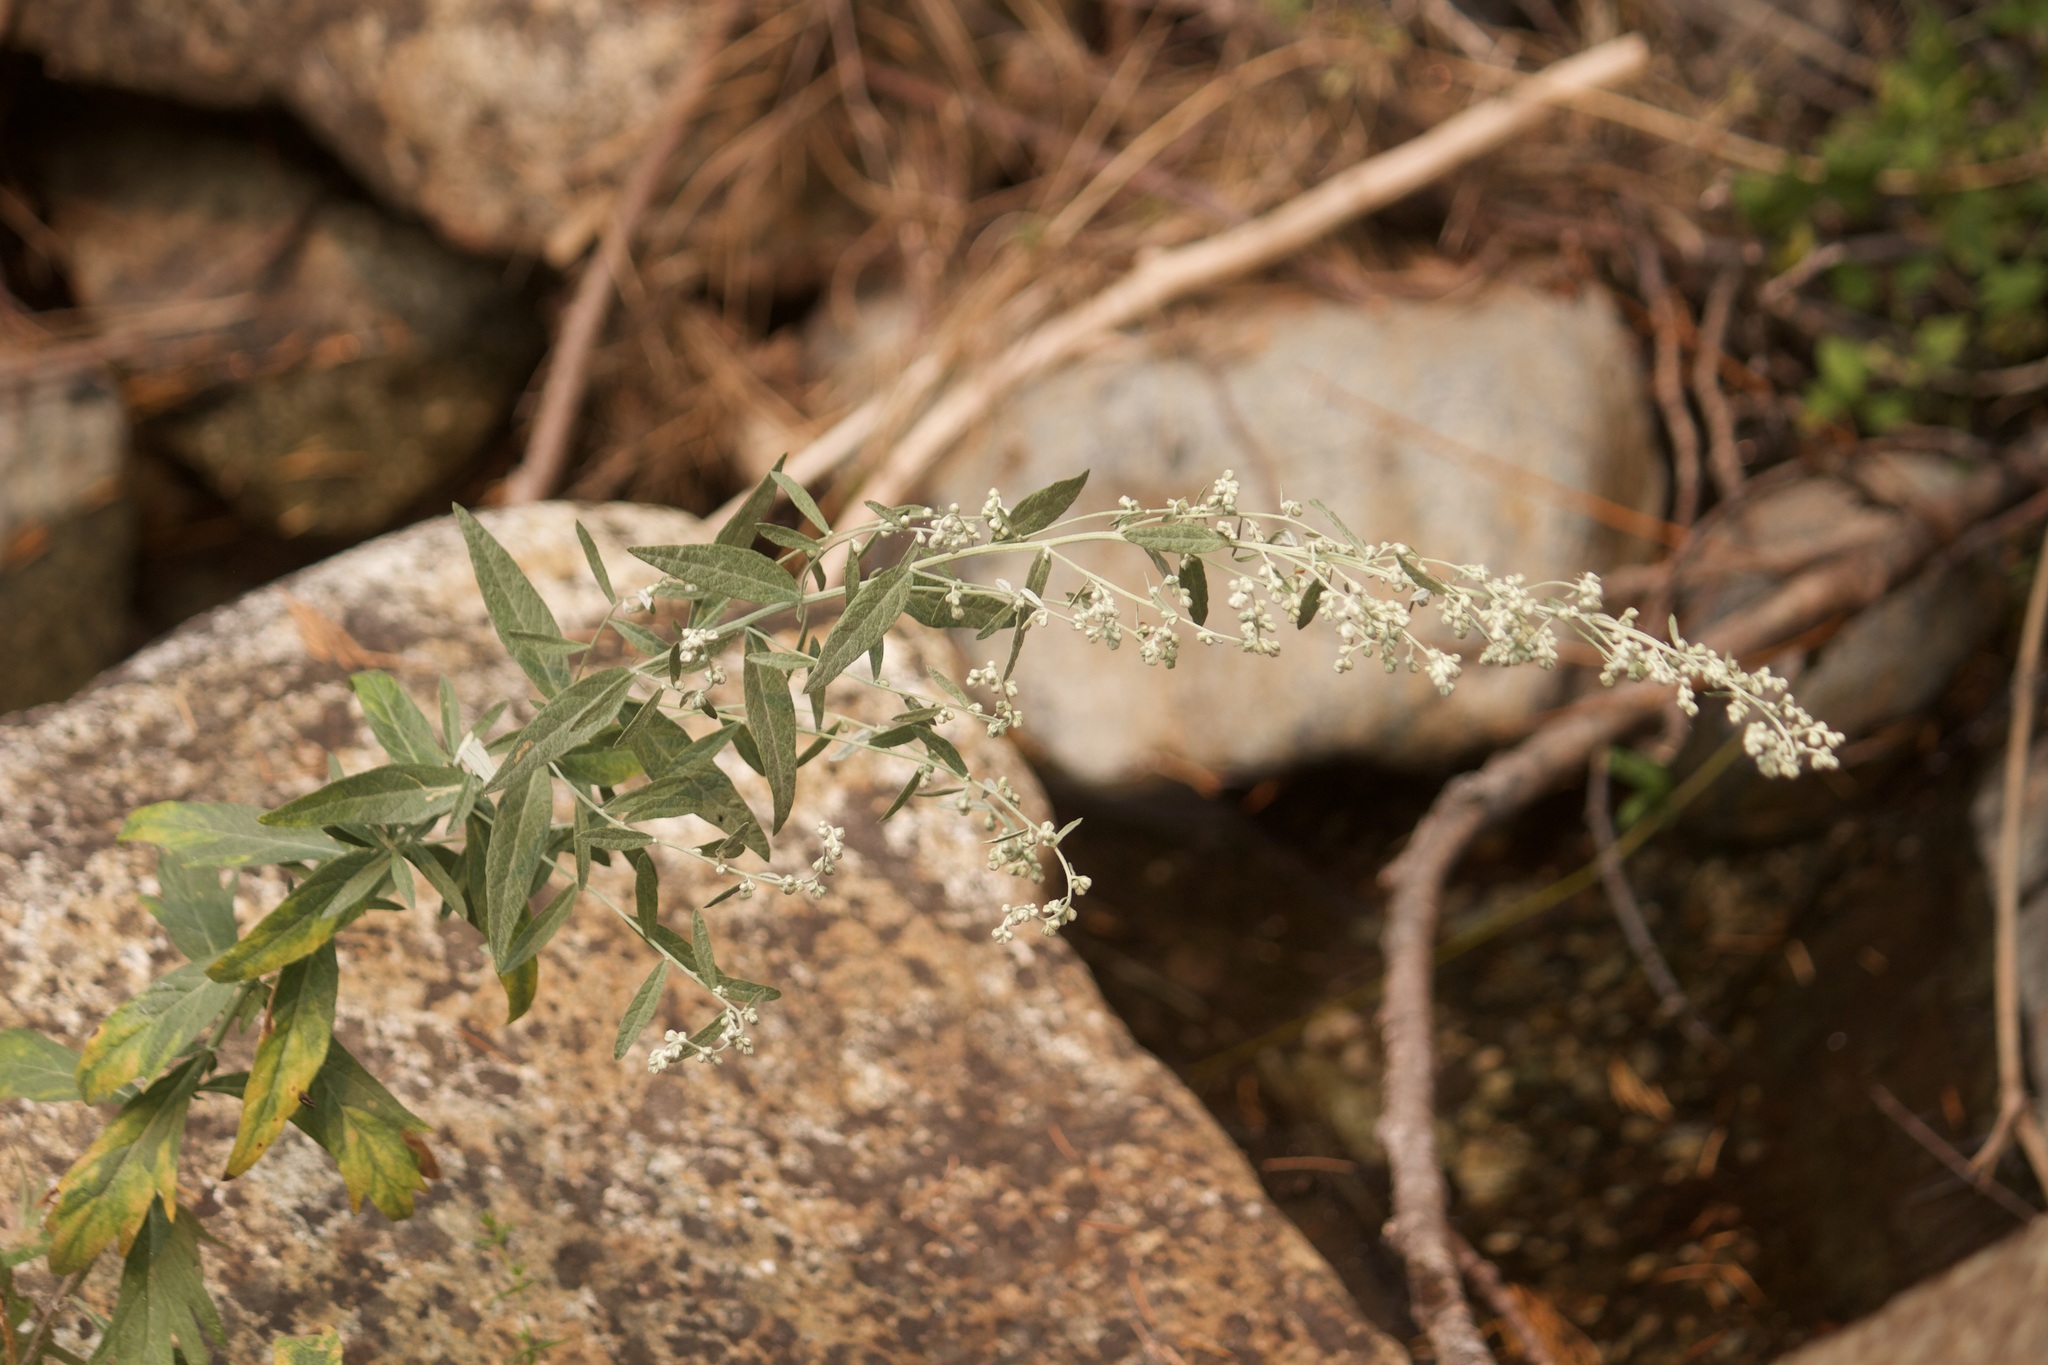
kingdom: Plantae
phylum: Tracheophyta
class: Magnoliopsida
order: Asterales
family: Asteraceae
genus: Artemisia
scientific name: Artemisia douglasiana
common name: Northwest mugwort
